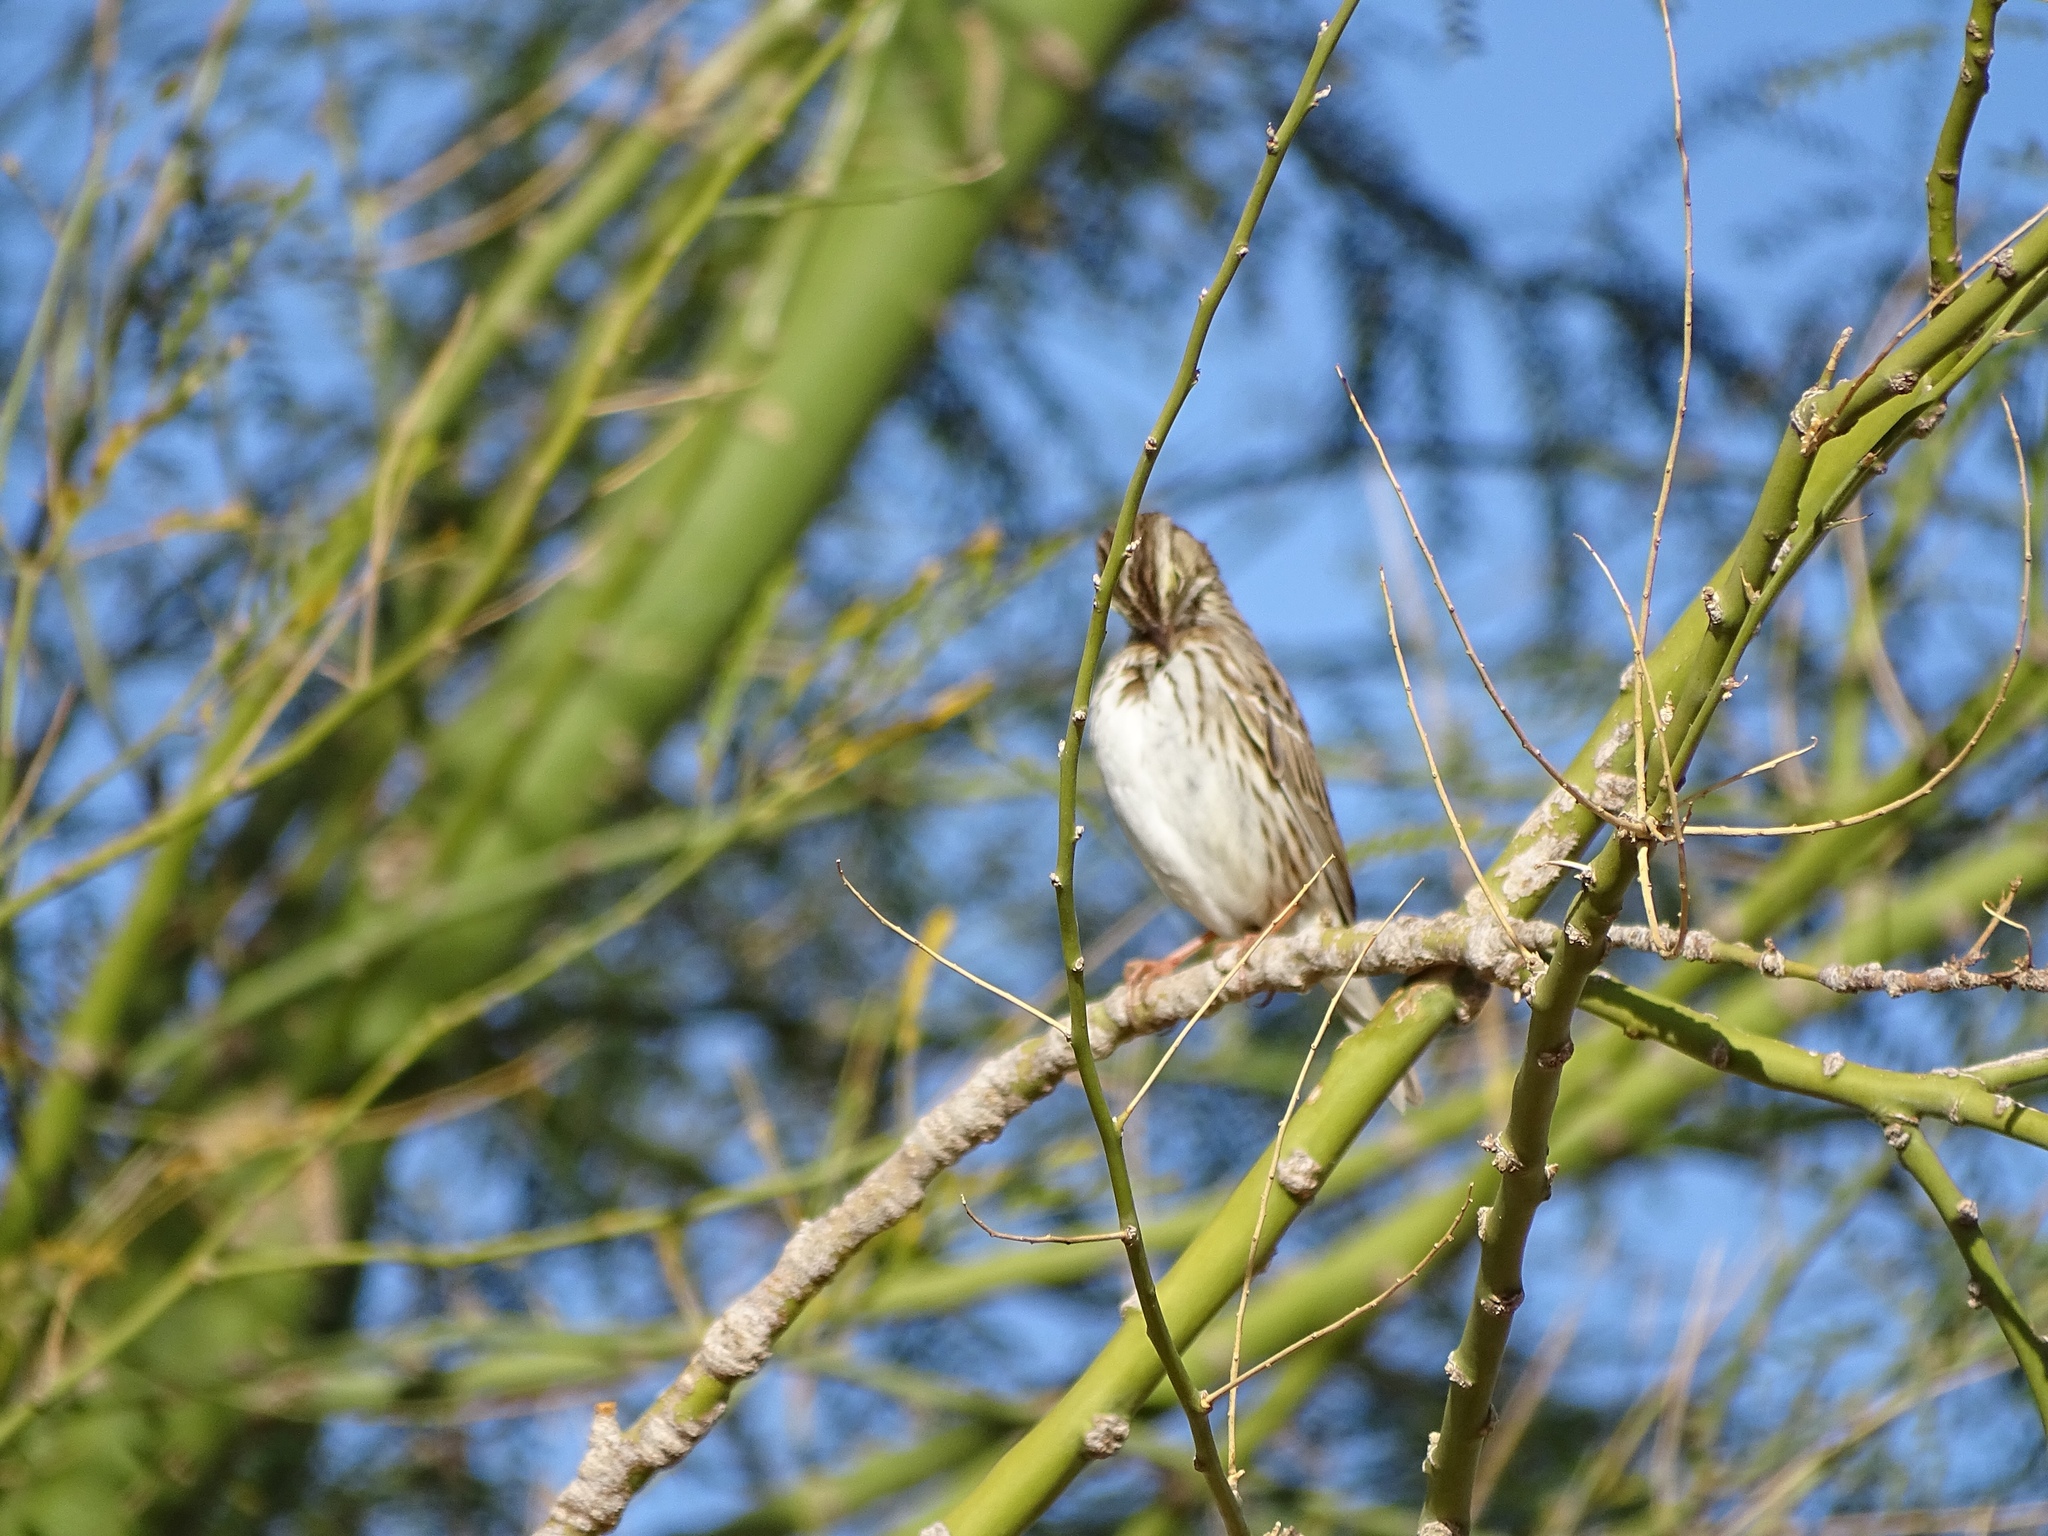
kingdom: Animalia
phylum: Chordata
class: Aves
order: Passeriformes
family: Passerellidae
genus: Passerculus
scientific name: Passerculus sandwichensis
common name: Savannah sparrow
